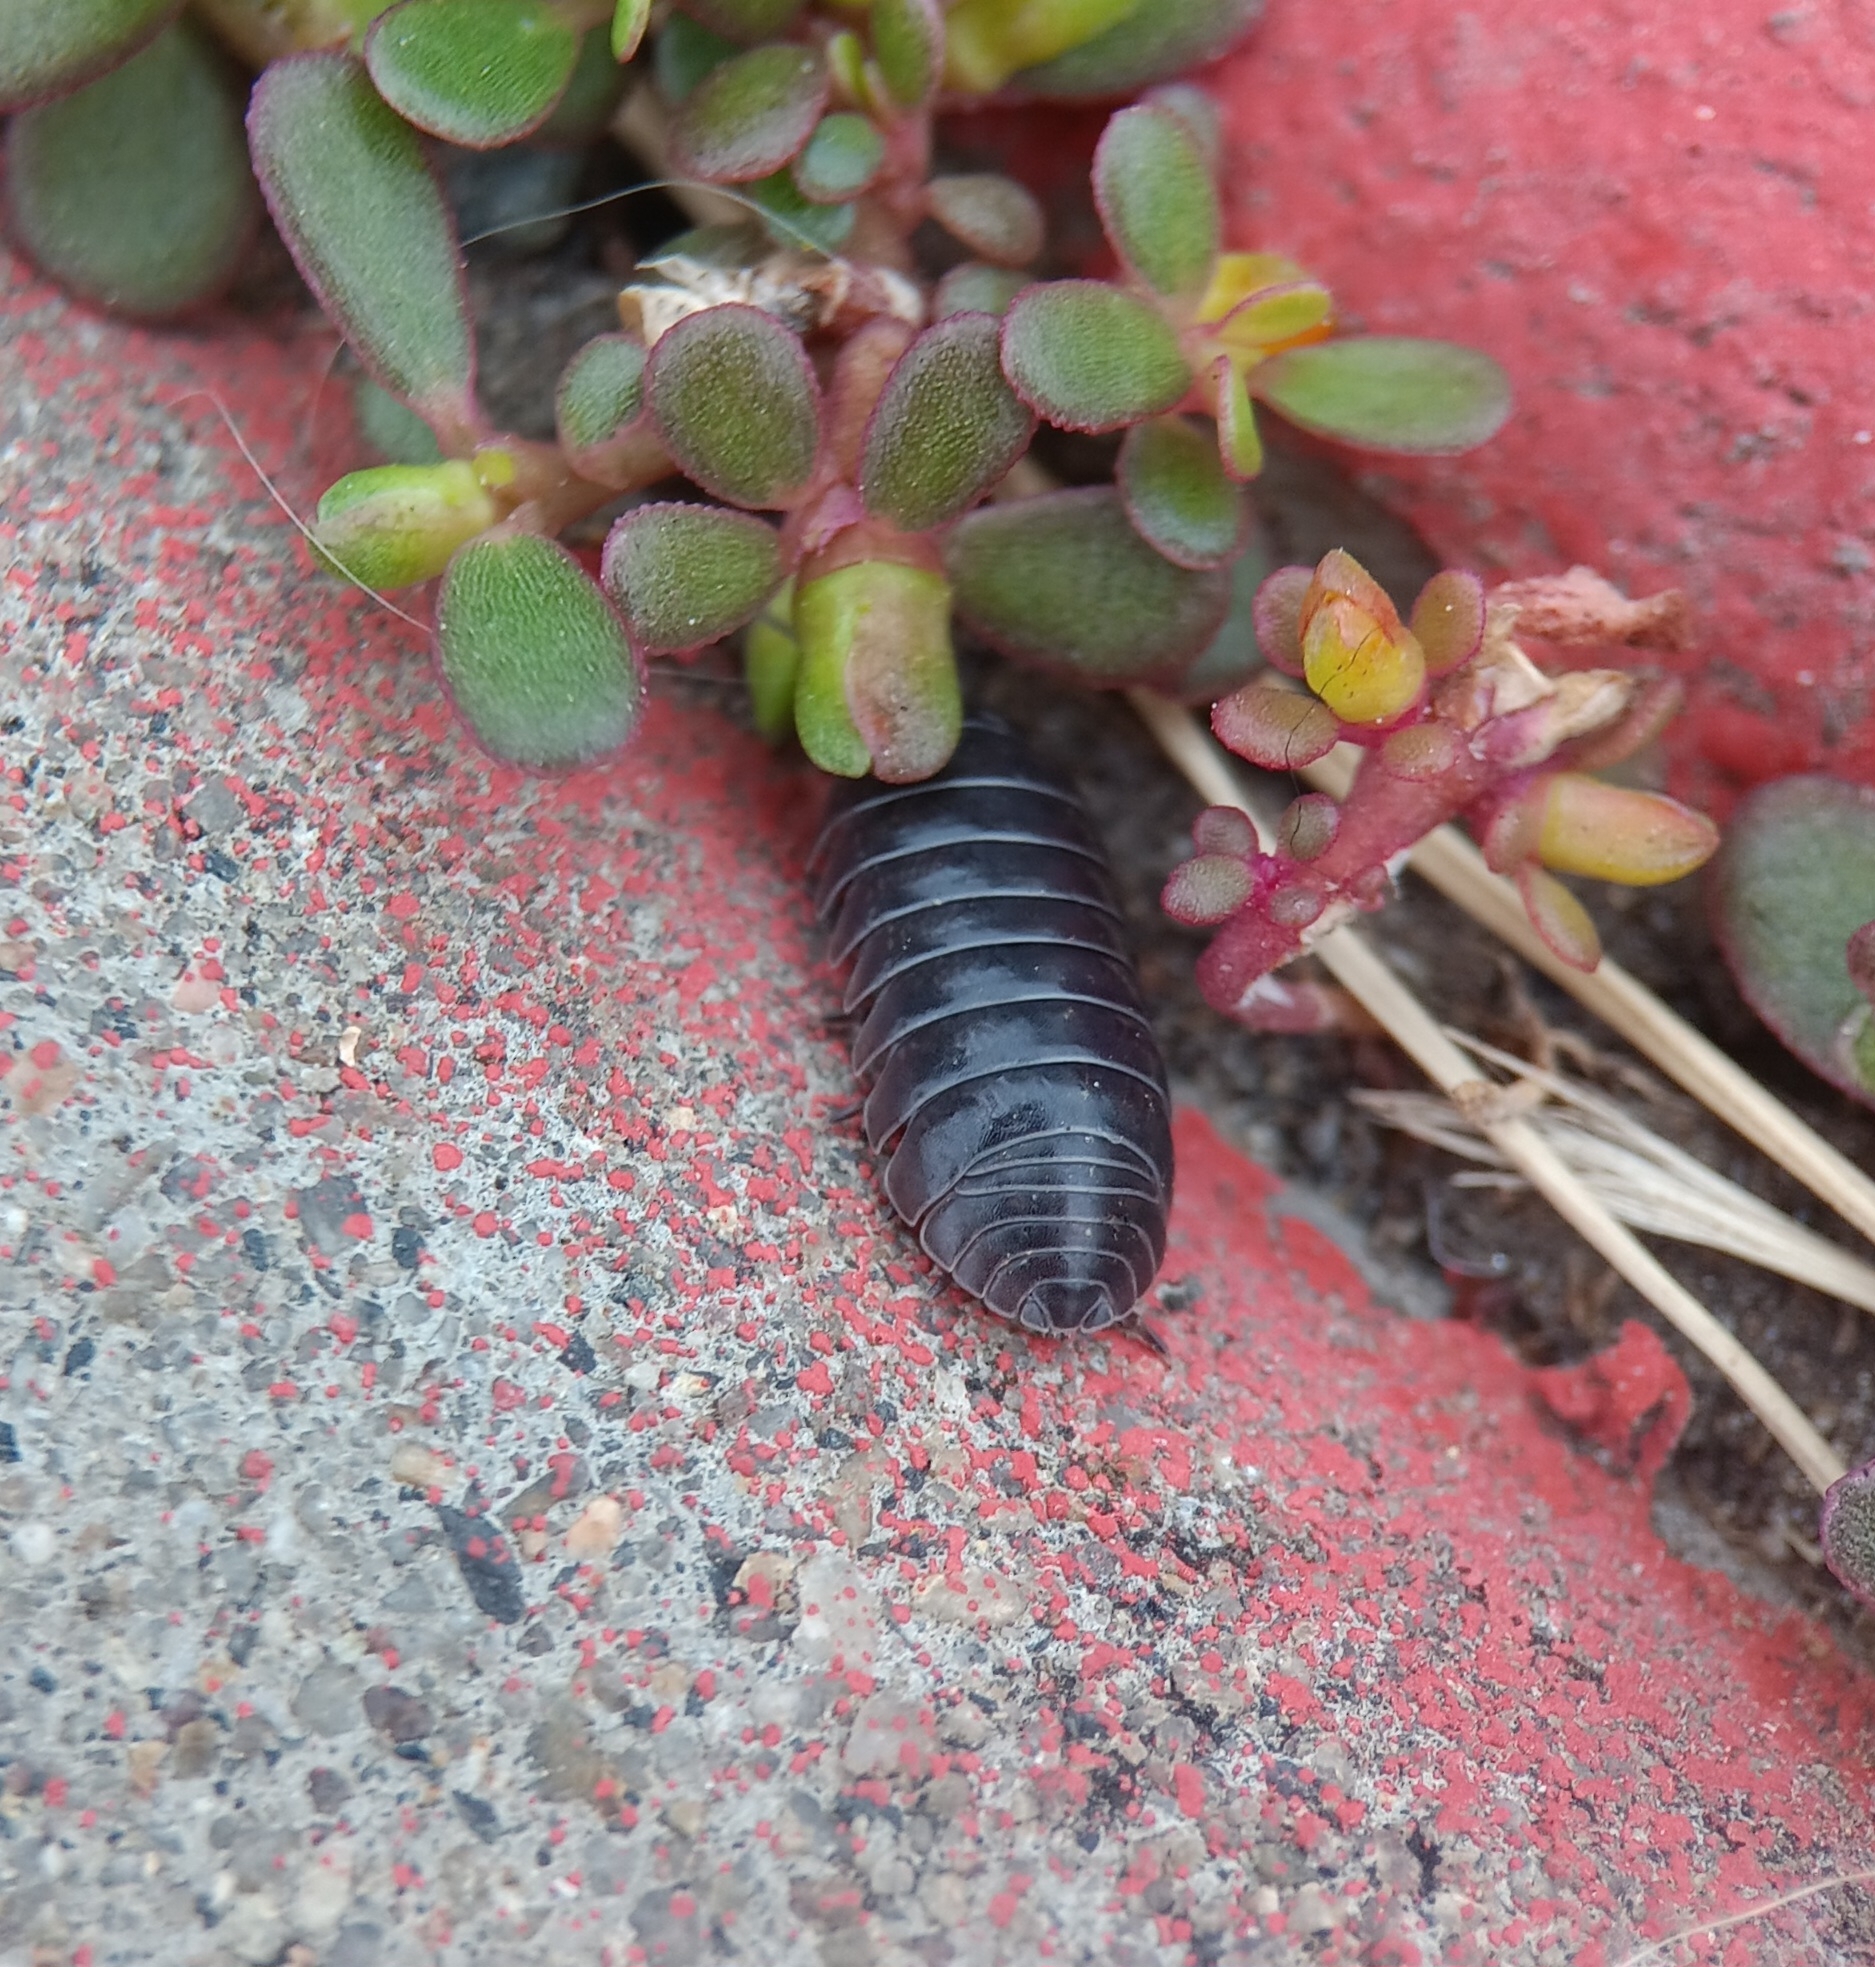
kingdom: Animalia
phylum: Arthropoda
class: Malacostraca
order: Isopoda
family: Armadillidiidae
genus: Armadillidium
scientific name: Armadillidium vulgare
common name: Common pill woodlouse
